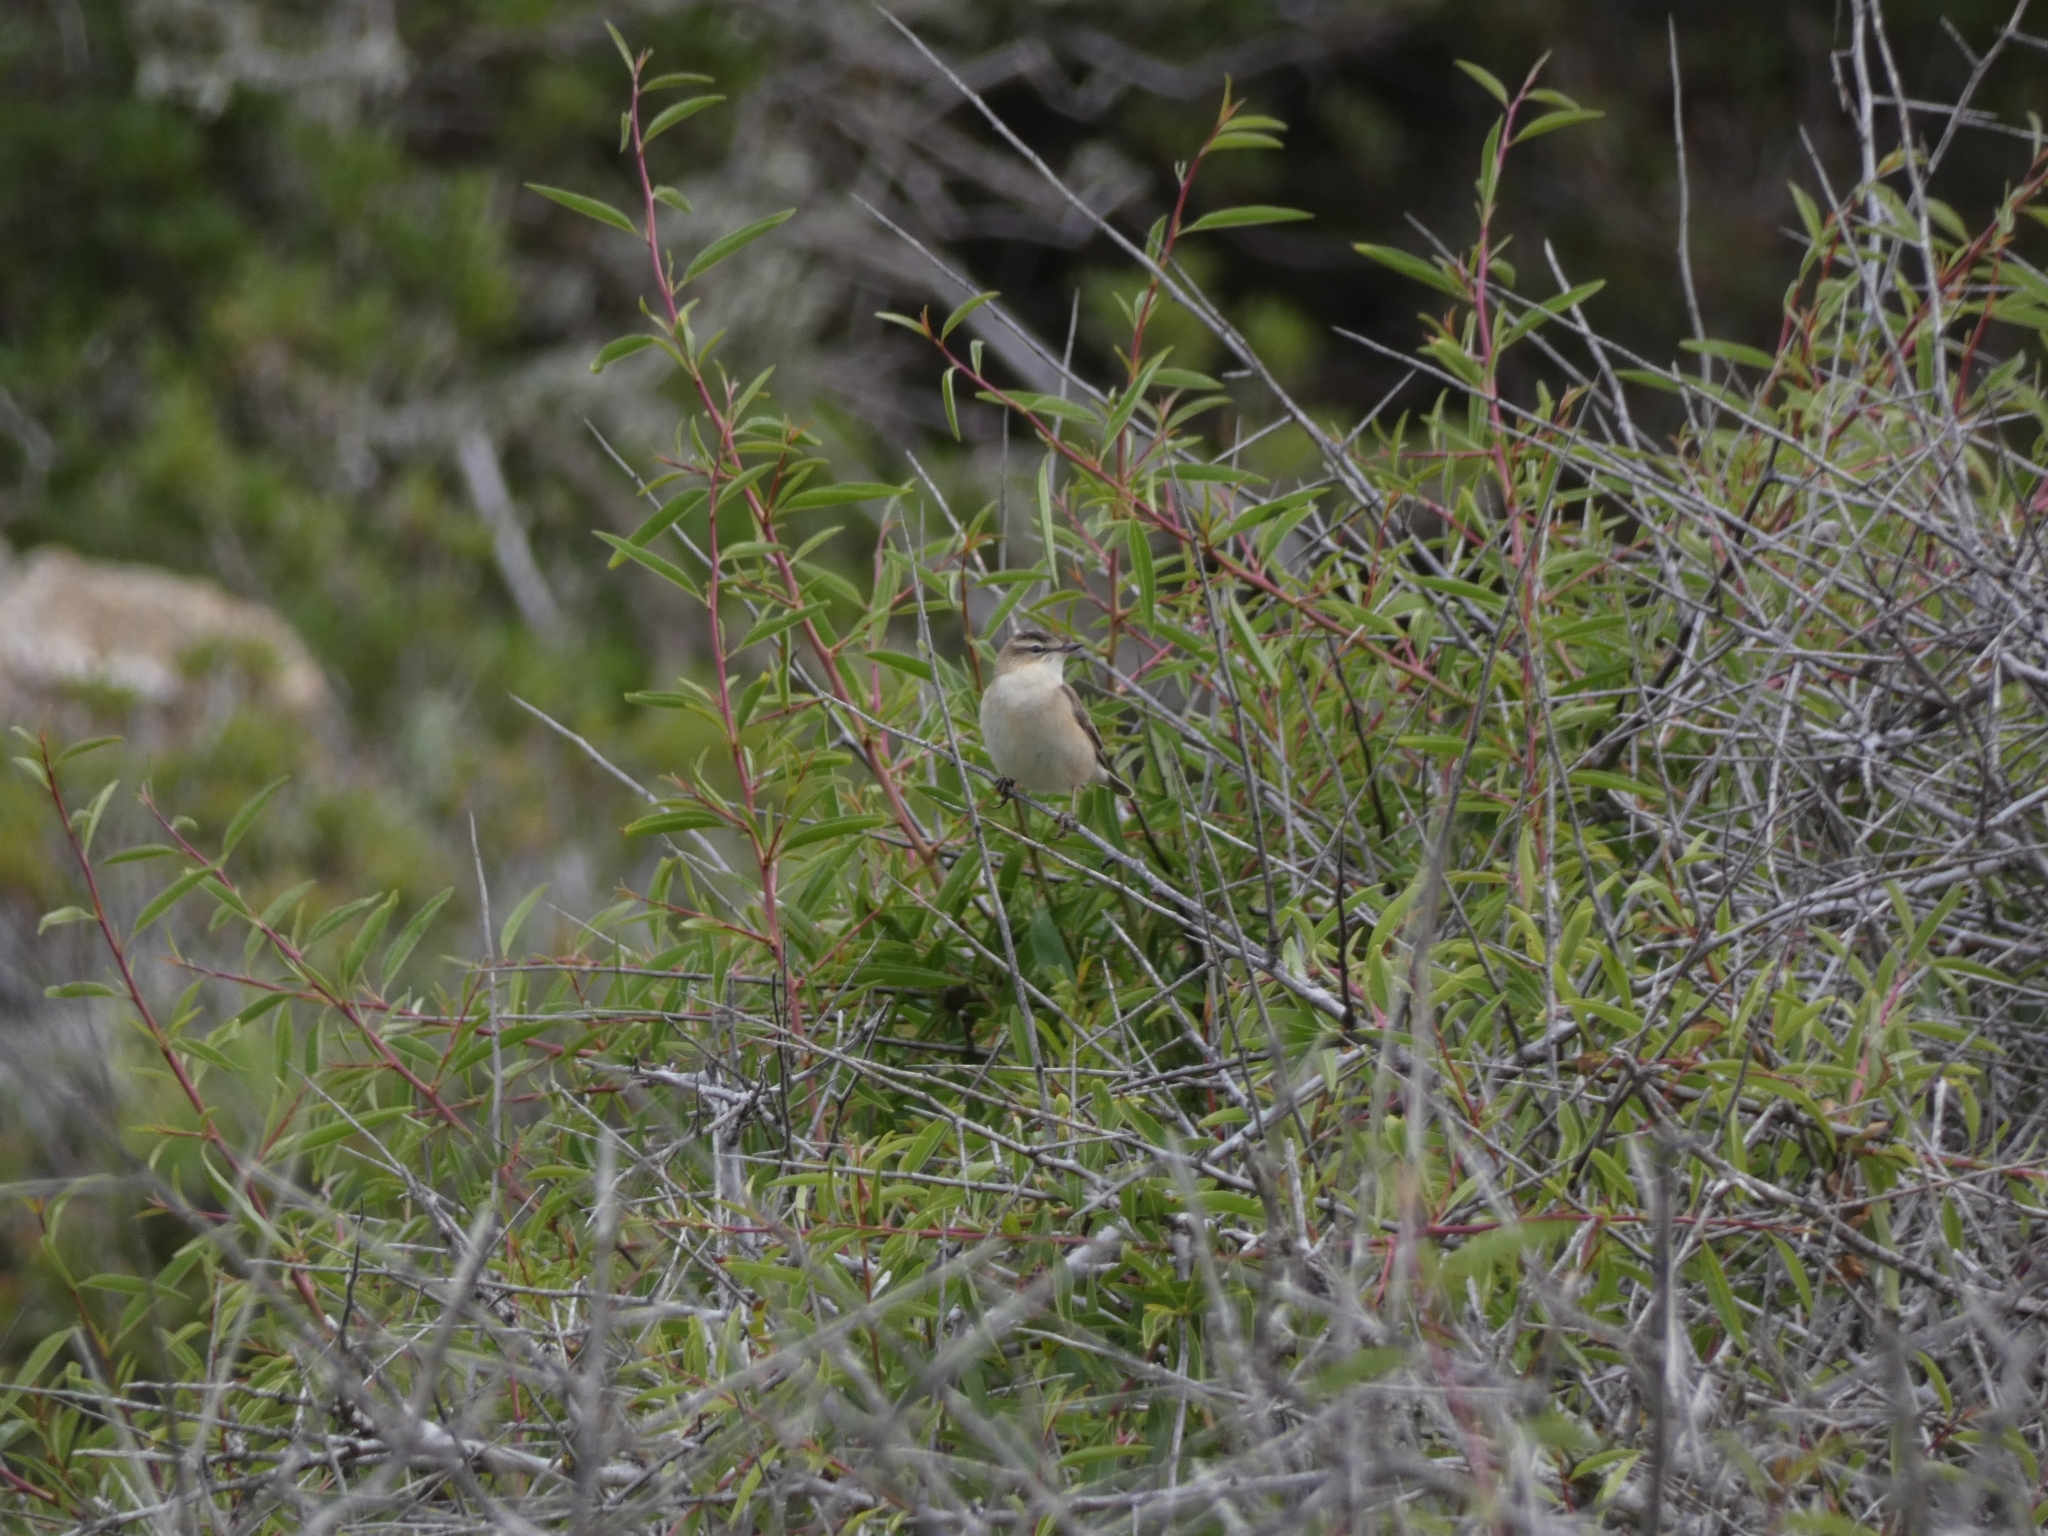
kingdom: Animalia
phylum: Chordata
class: Aves
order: Passeriformes
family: Acrocephalidae
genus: Acrocephalus
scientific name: Acrocephalus schoenobaenus
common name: Sedge warbler
